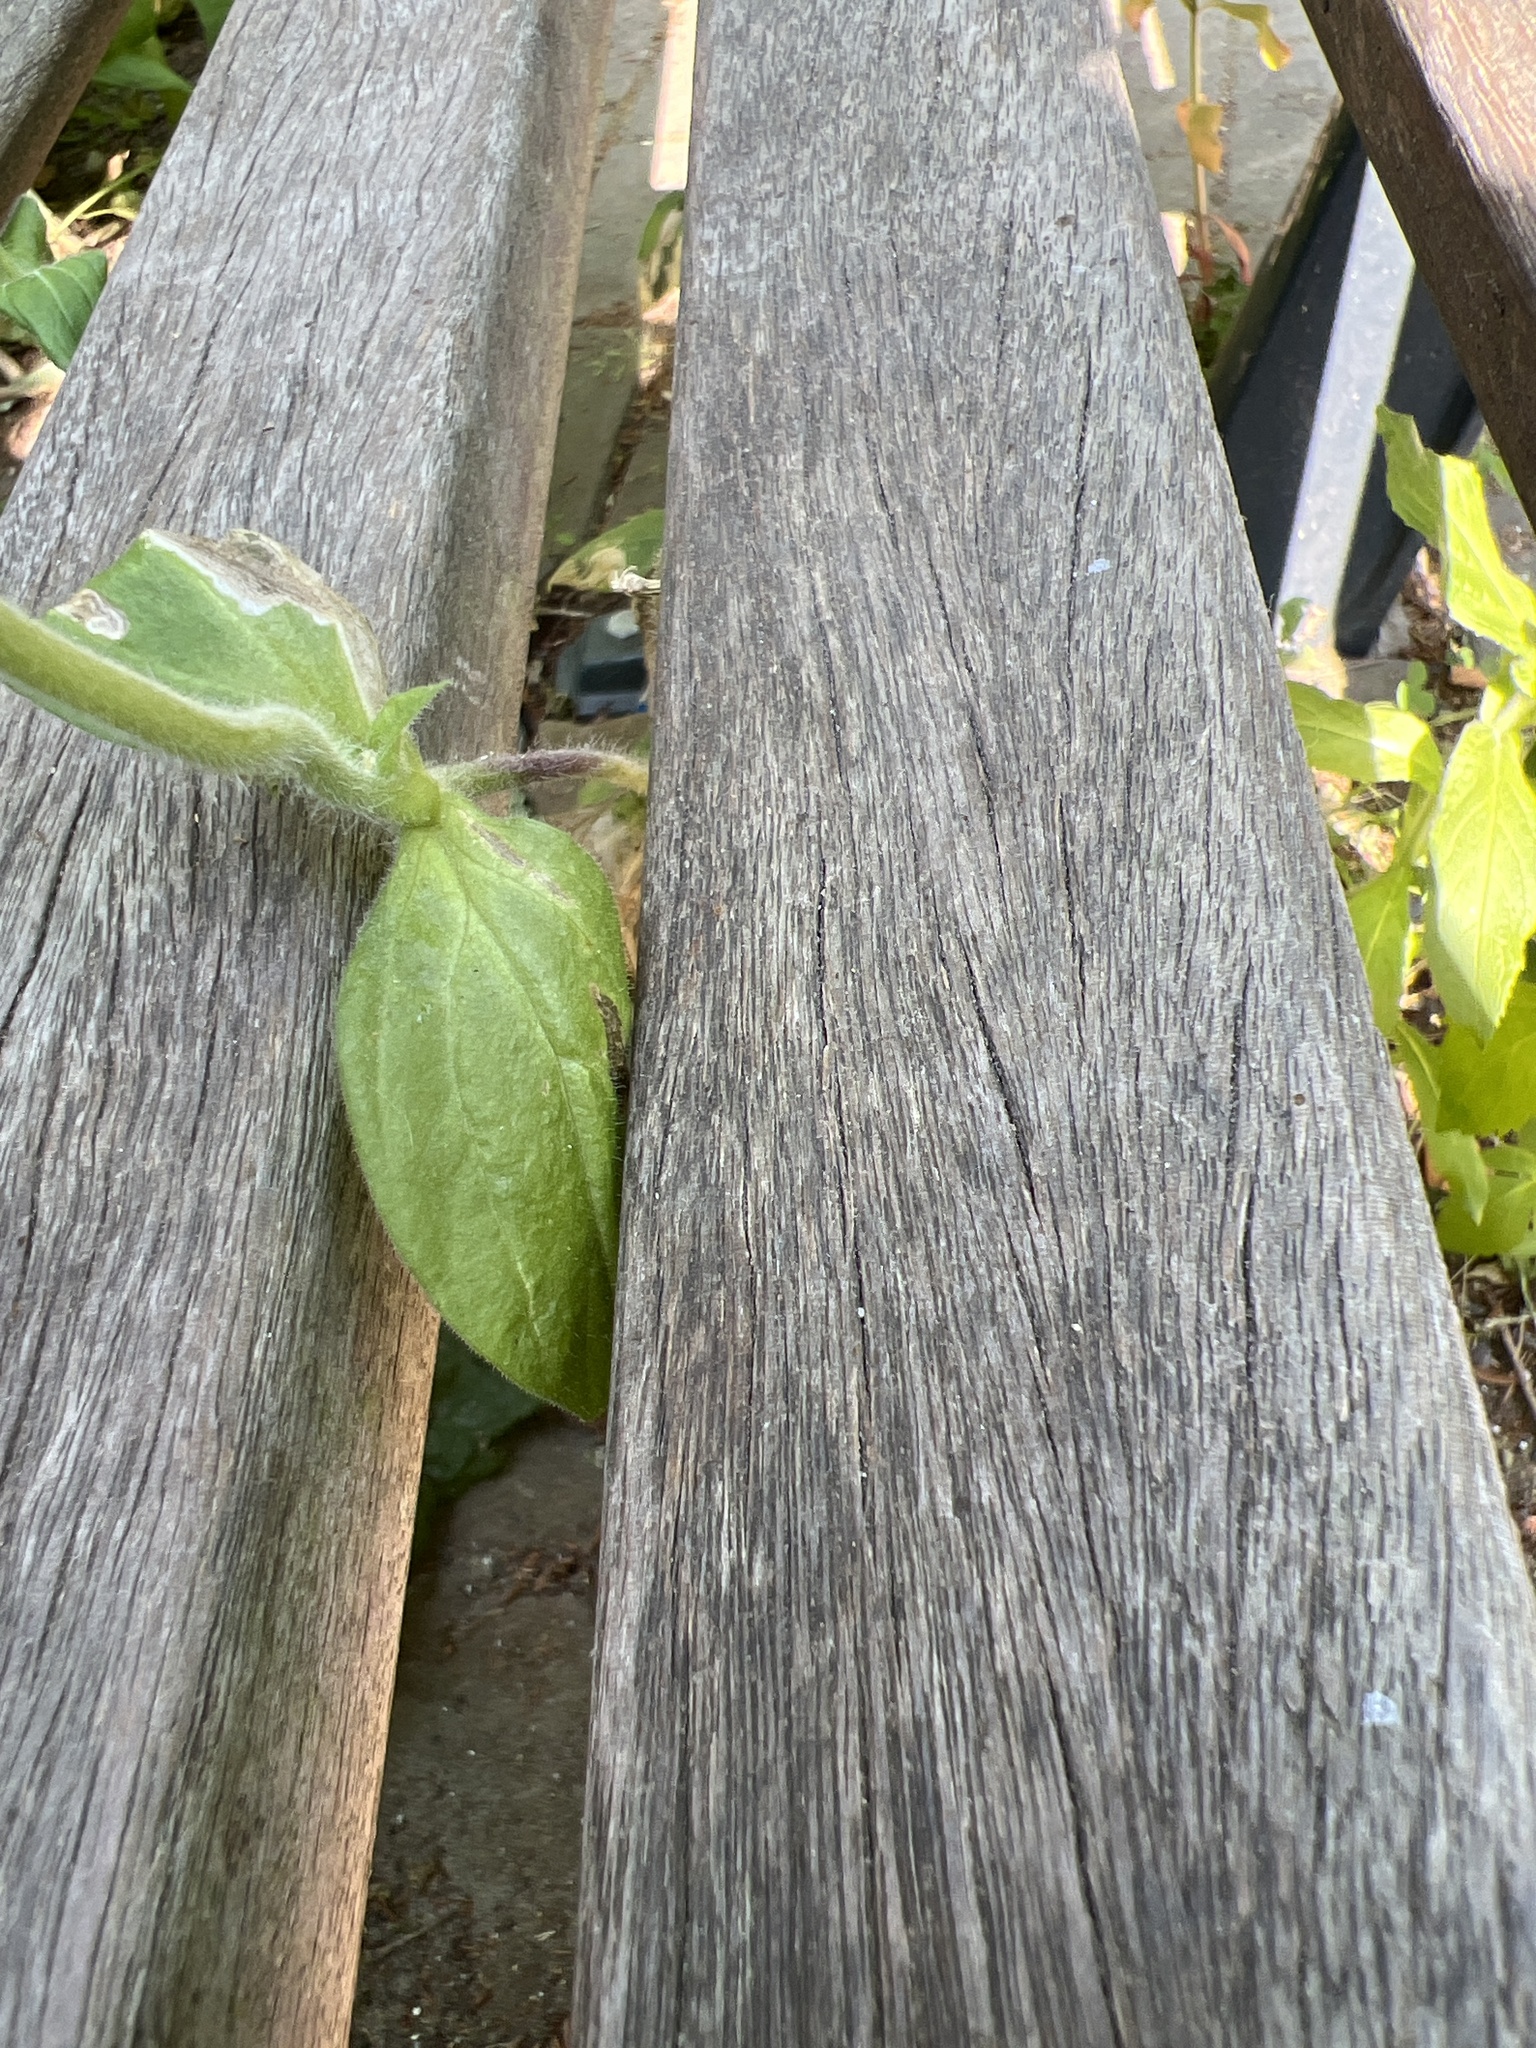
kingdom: Plantae
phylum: Tracheophyta
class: Magnoliopsida
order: Caryophyllales
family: Caryophyllaceae
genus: Silene
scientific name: Silene dioica
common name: Red campion
